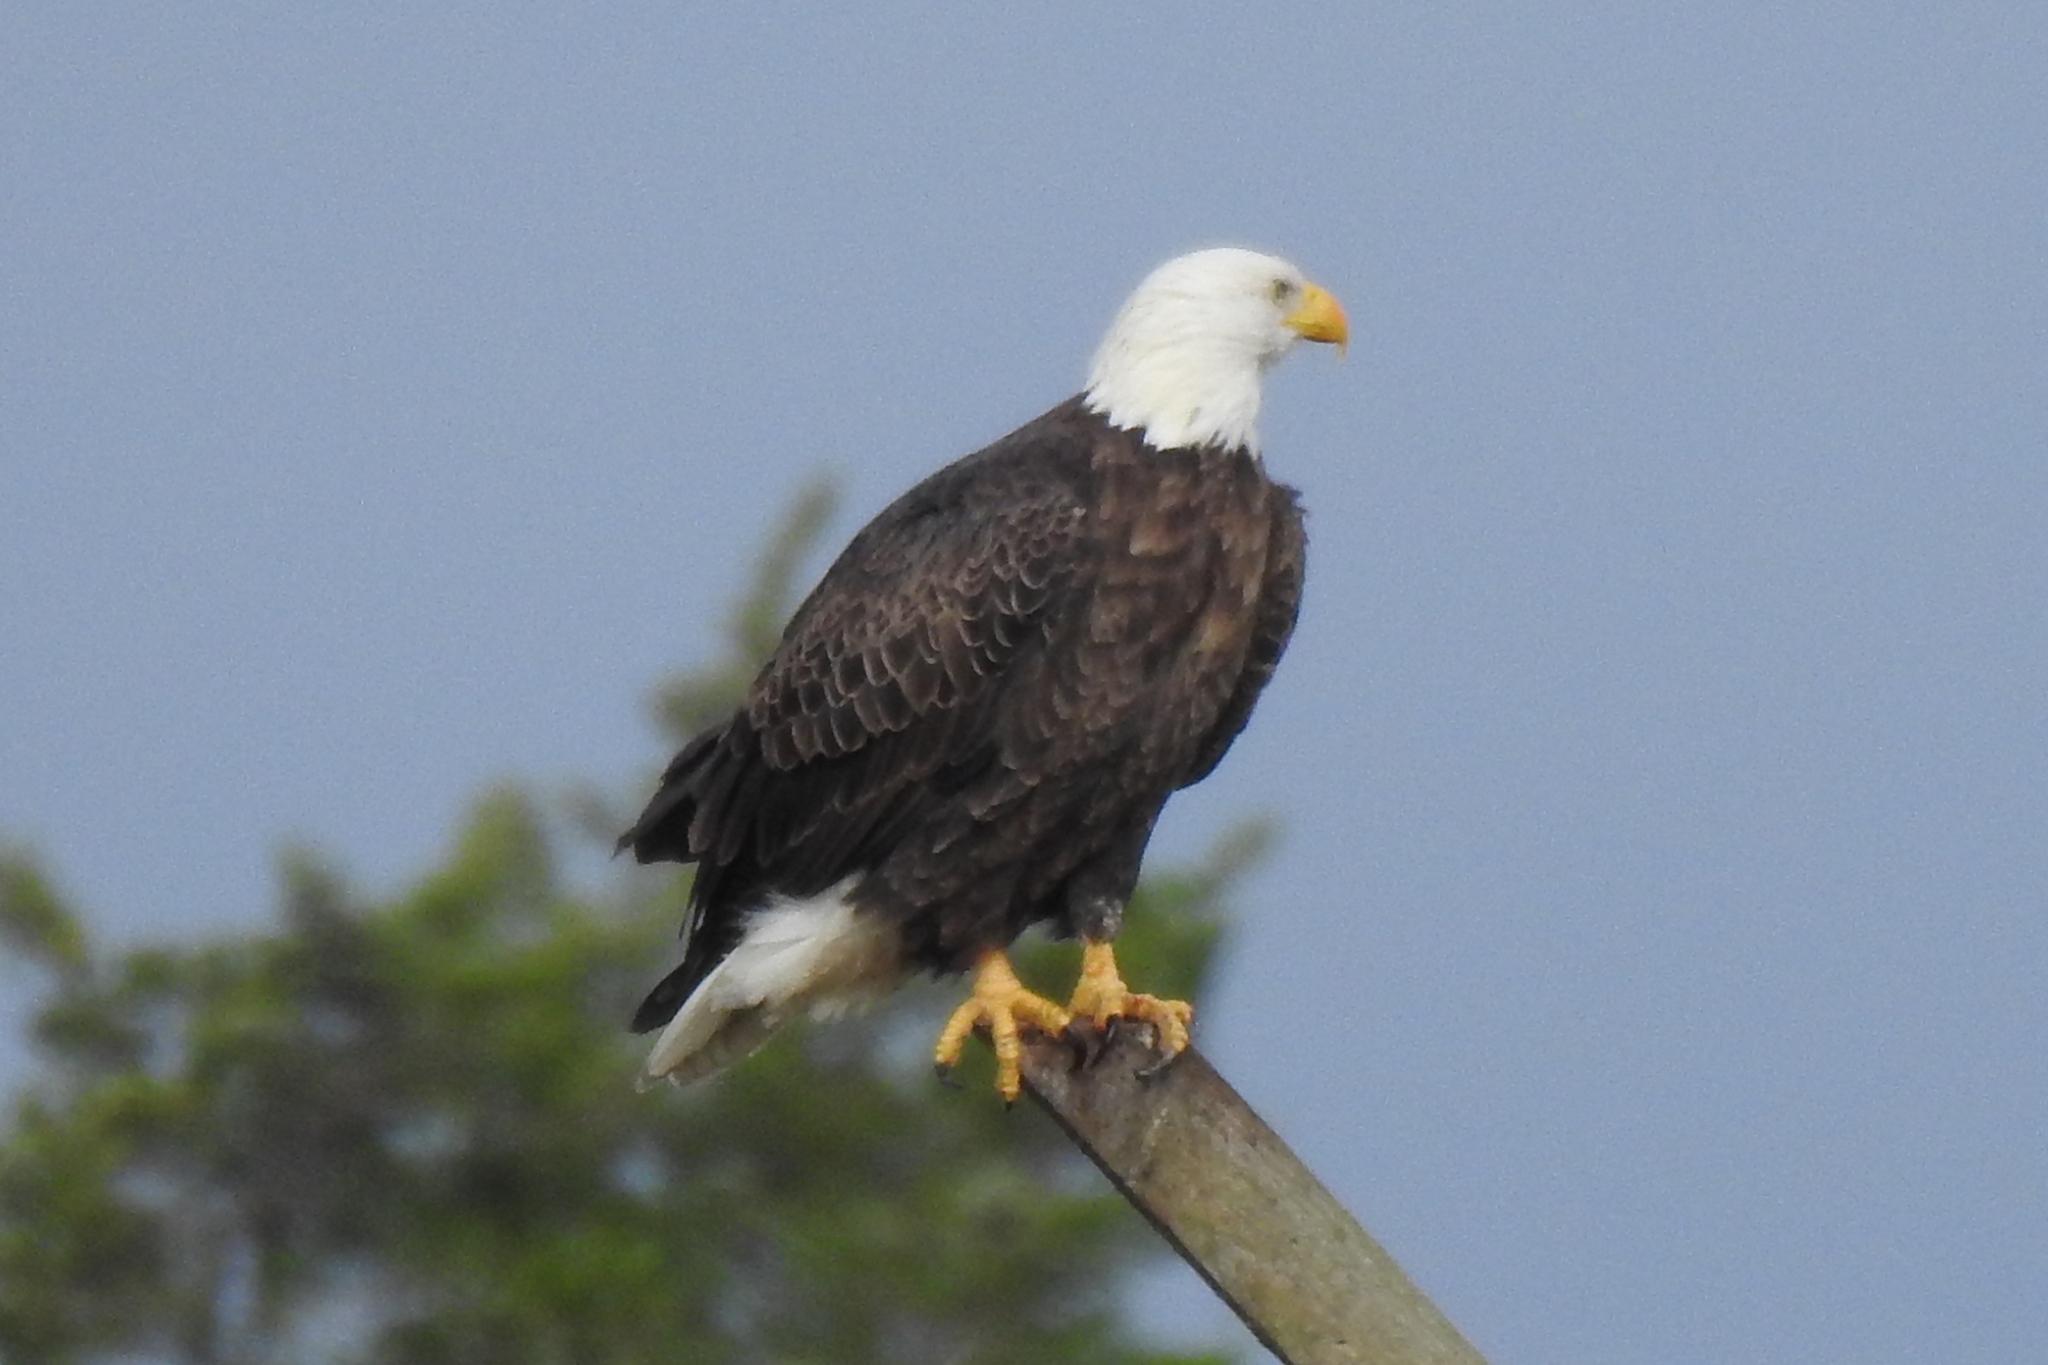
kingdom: Animalia
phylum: Chordata
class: Aves
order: Accipitriformes
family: Accipitridae
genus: Haliaeetus
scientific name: Haliaeetus leucocephalus
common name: Bald eagle
